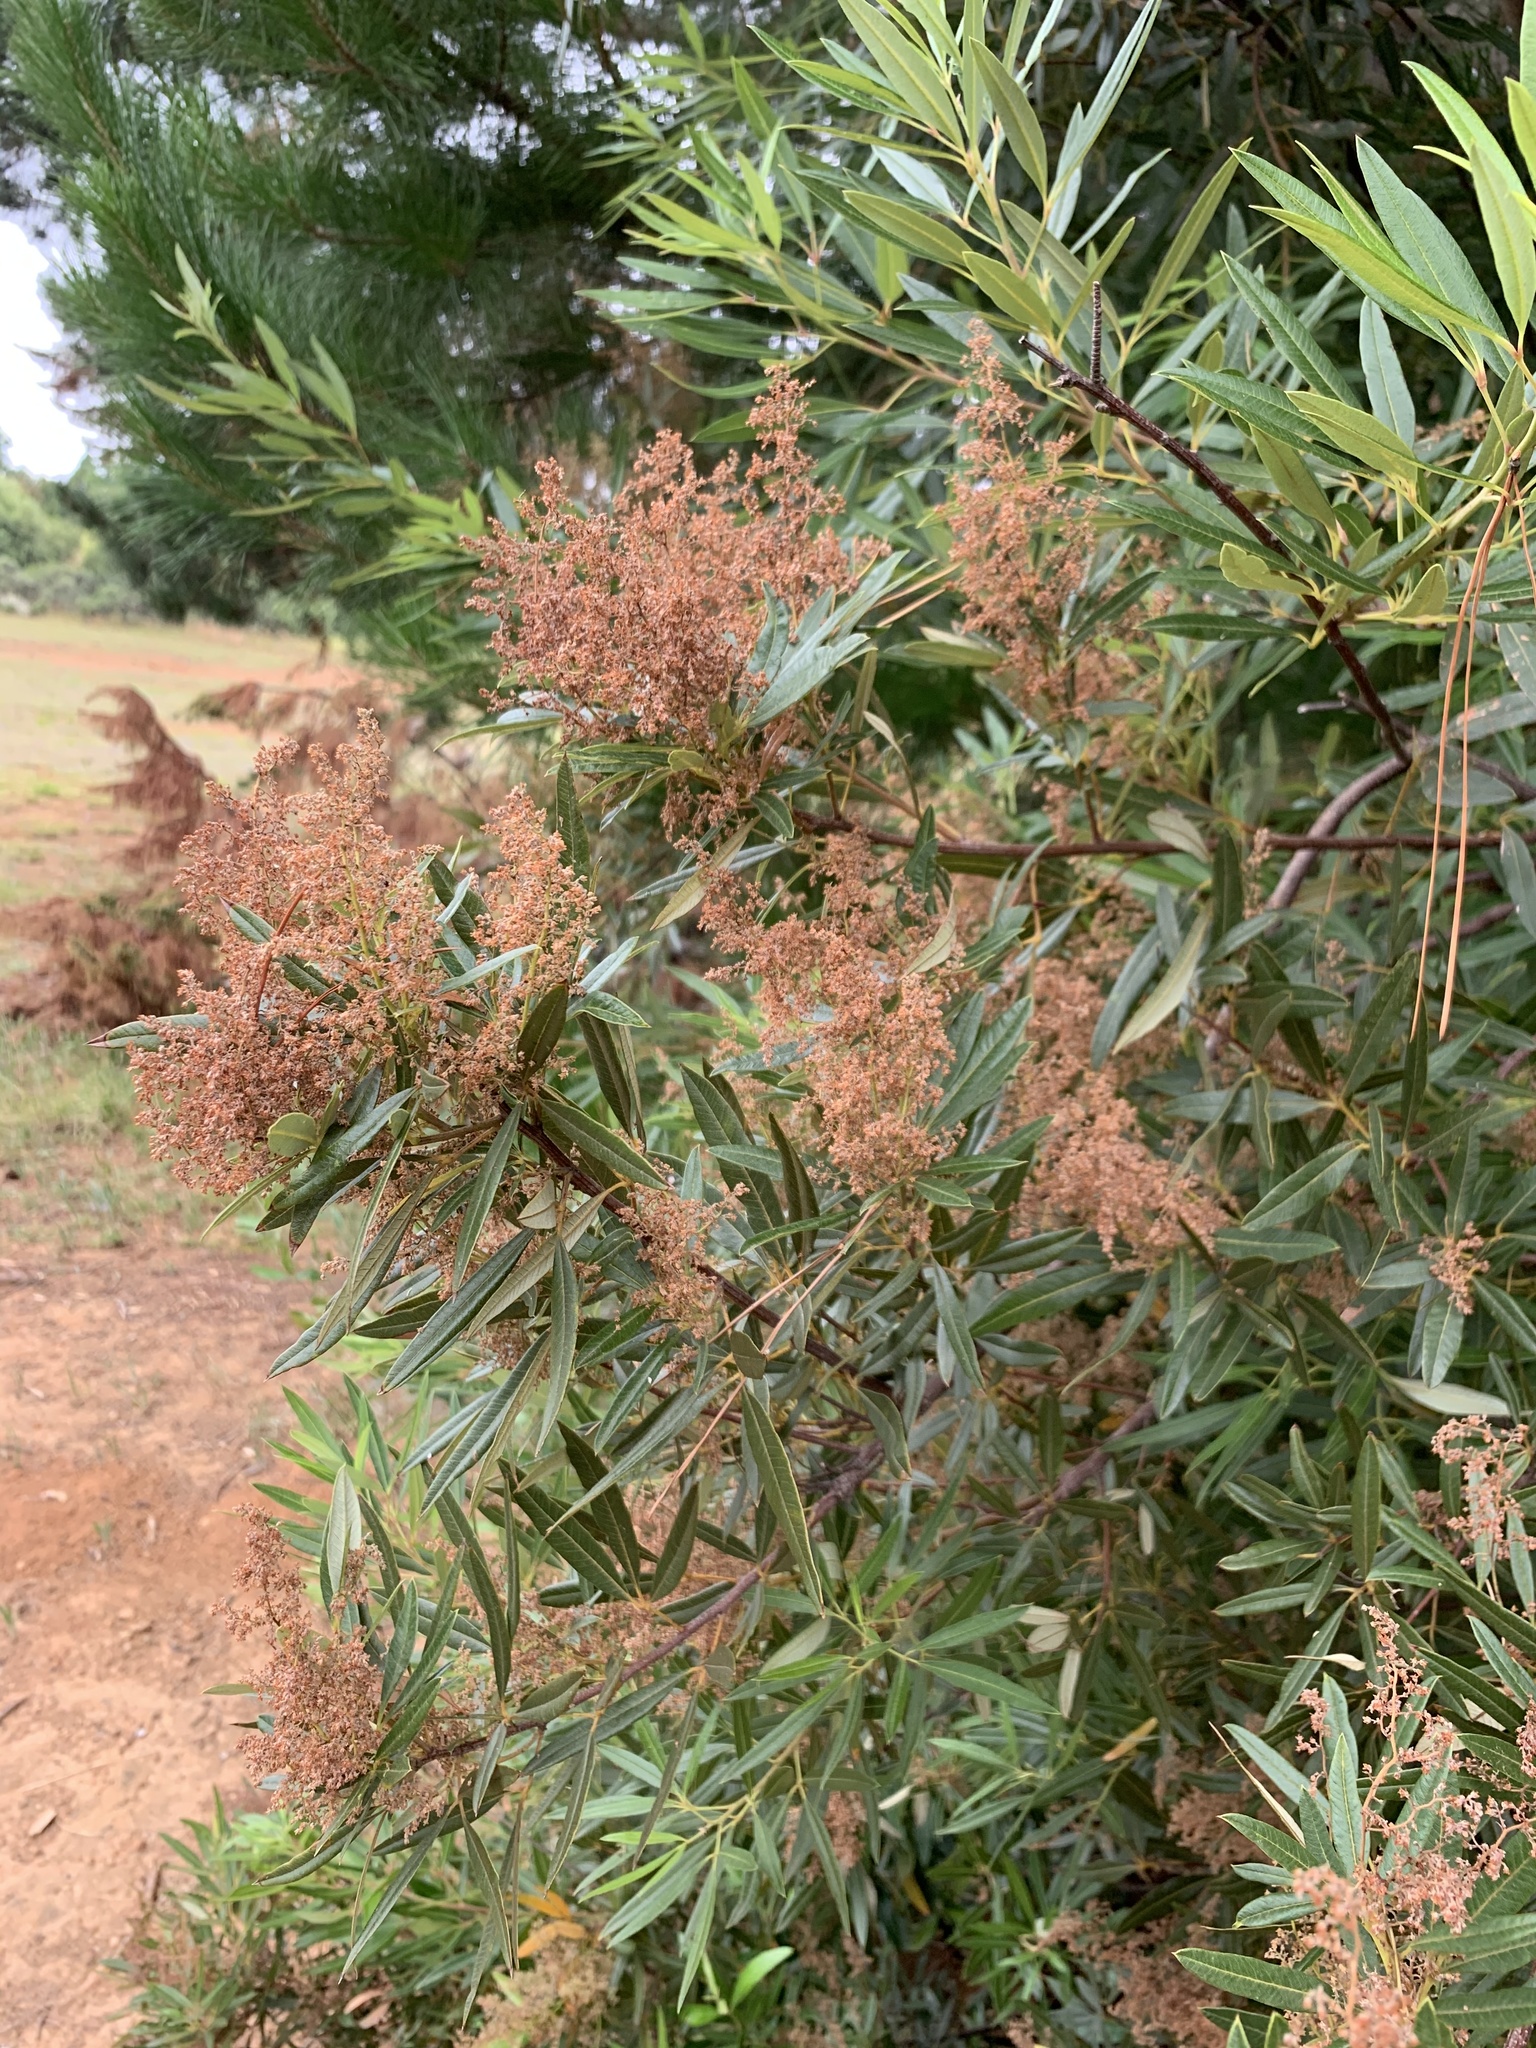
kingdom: Plantae
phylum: Tracheophyta
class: Magnoliopsida
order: Sapindales
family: Anacardiaceae
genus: Searsia
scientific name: Searsia angustifolia
